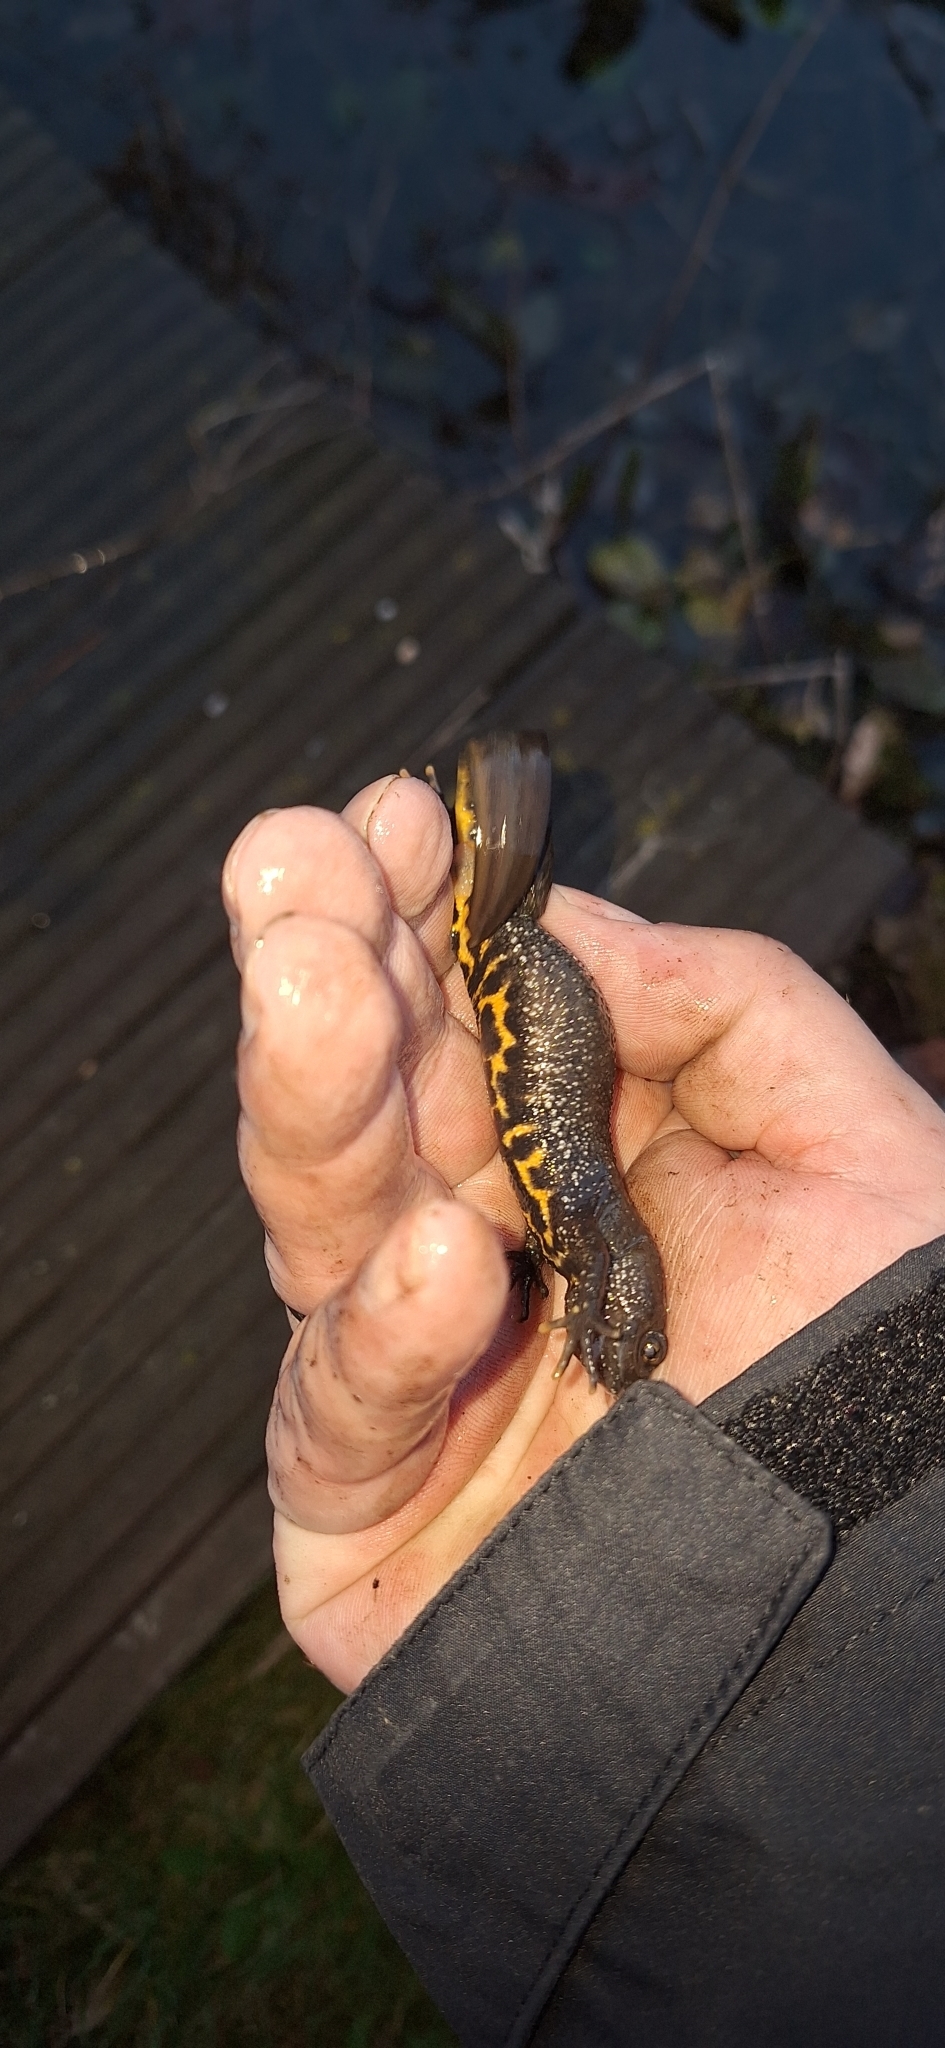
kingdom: Animalia
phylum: Chordata
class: Amphibia
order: Caudata
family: Salamandridae
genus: Triturus
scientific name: Triturus cristatus
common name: Crested newt
